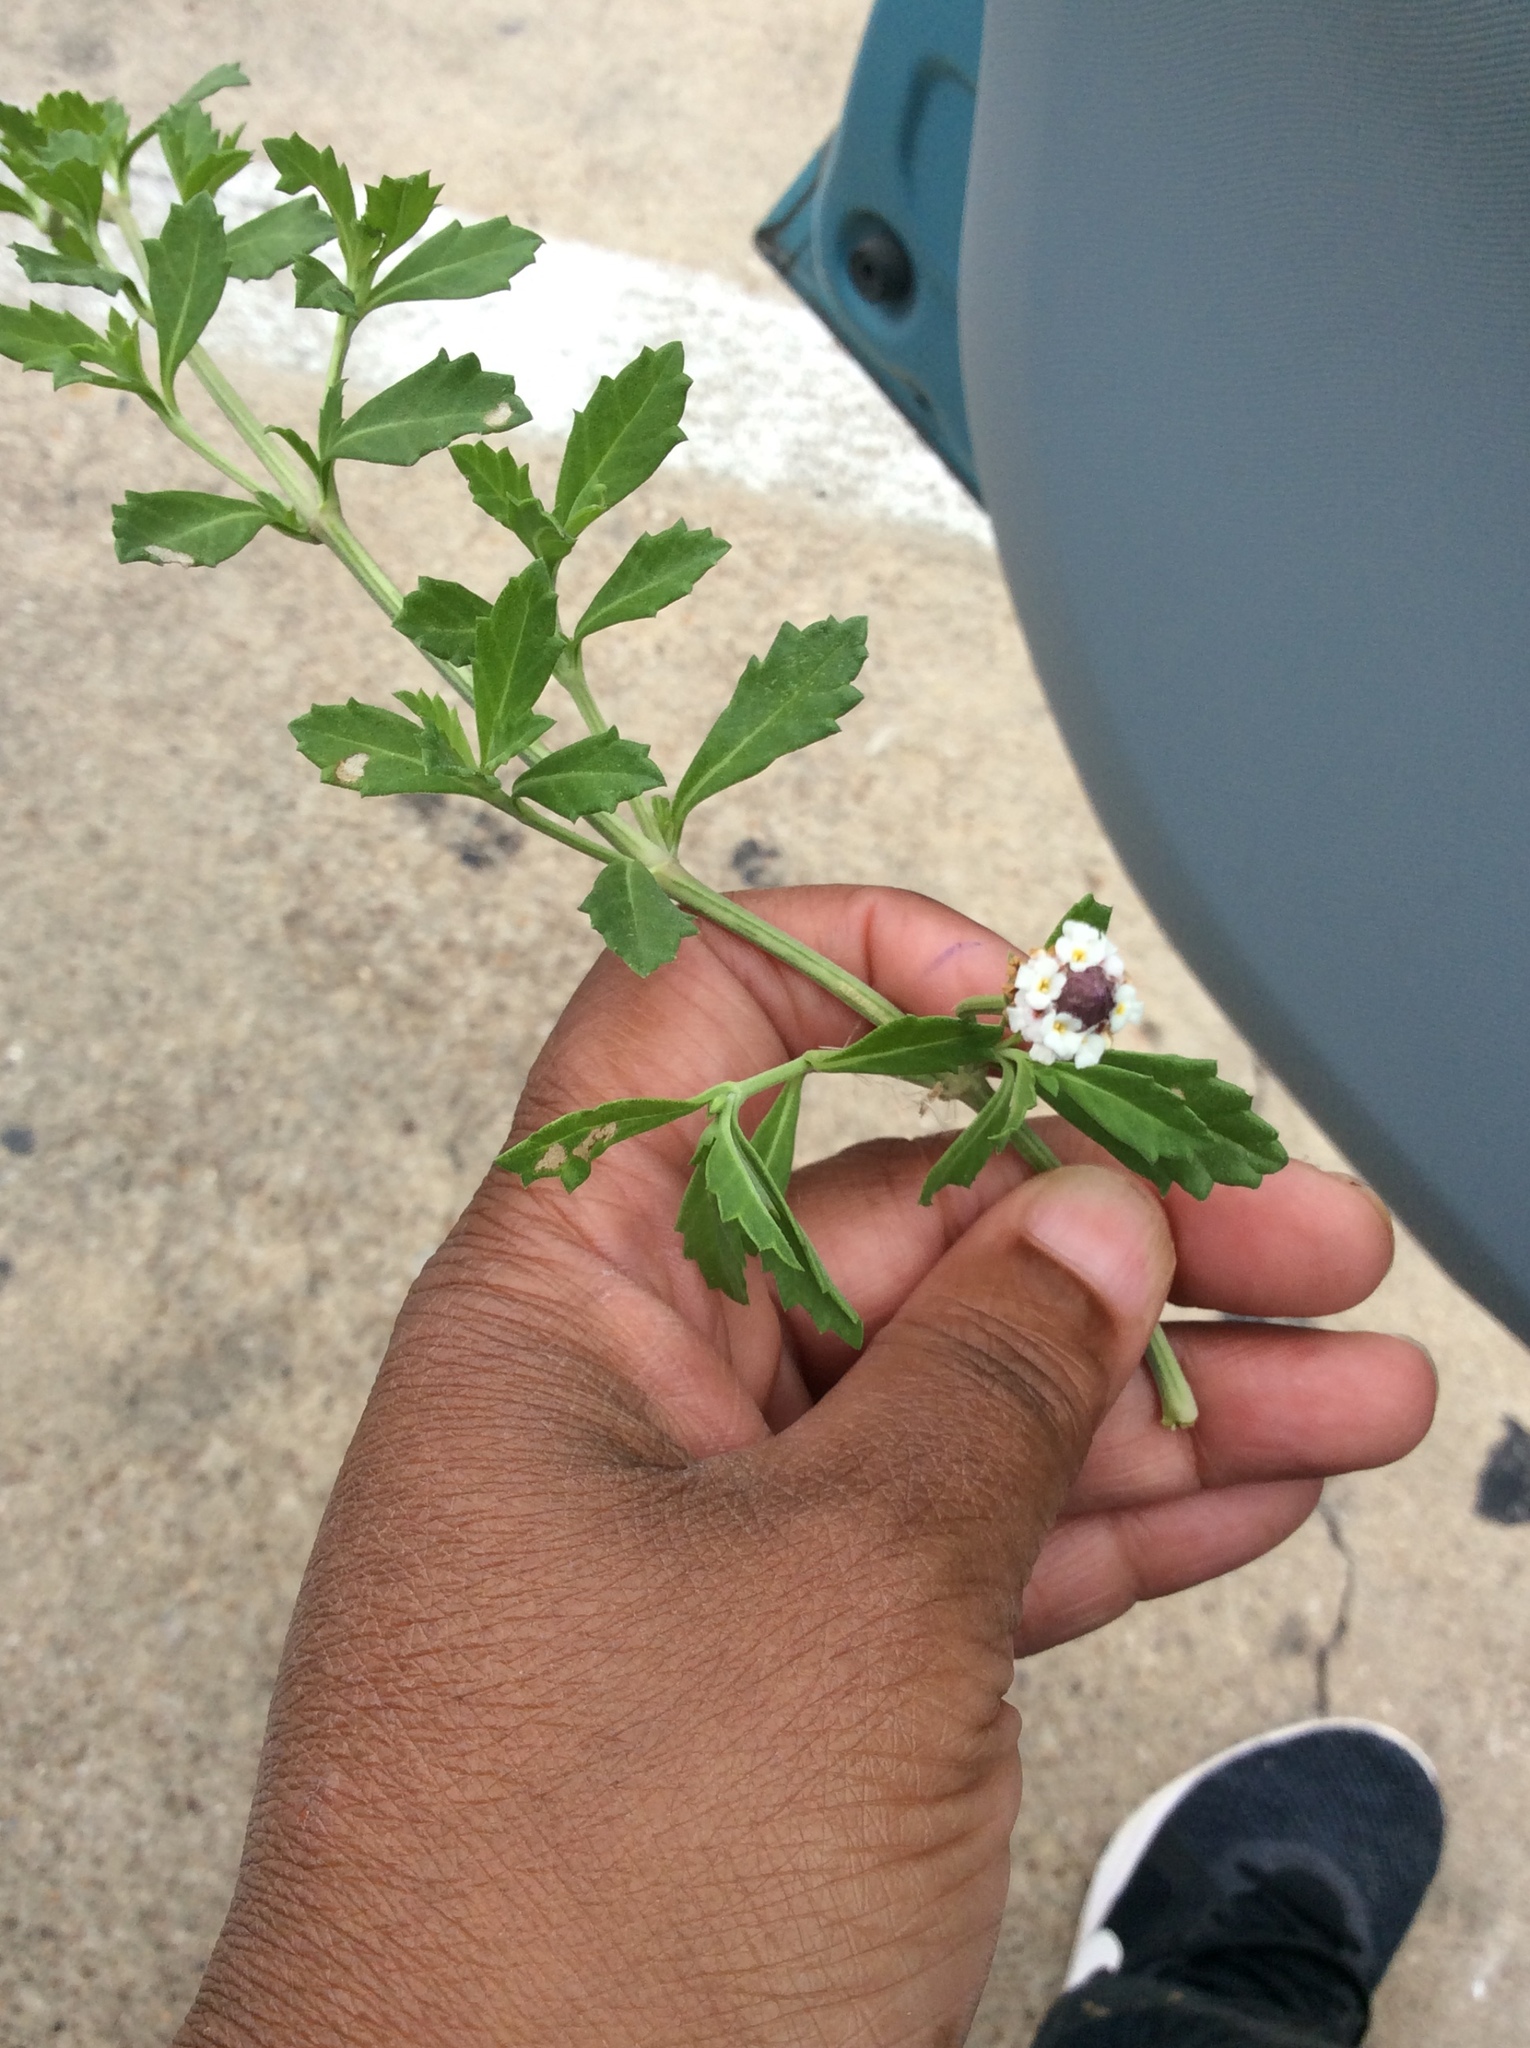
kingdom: Plantae
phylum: Tracheophyta
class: Magnoliopsida
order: Lamiales
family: Verbenaceae
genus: Phyla
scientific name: Phyla nodiflora
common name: Frogfruit
